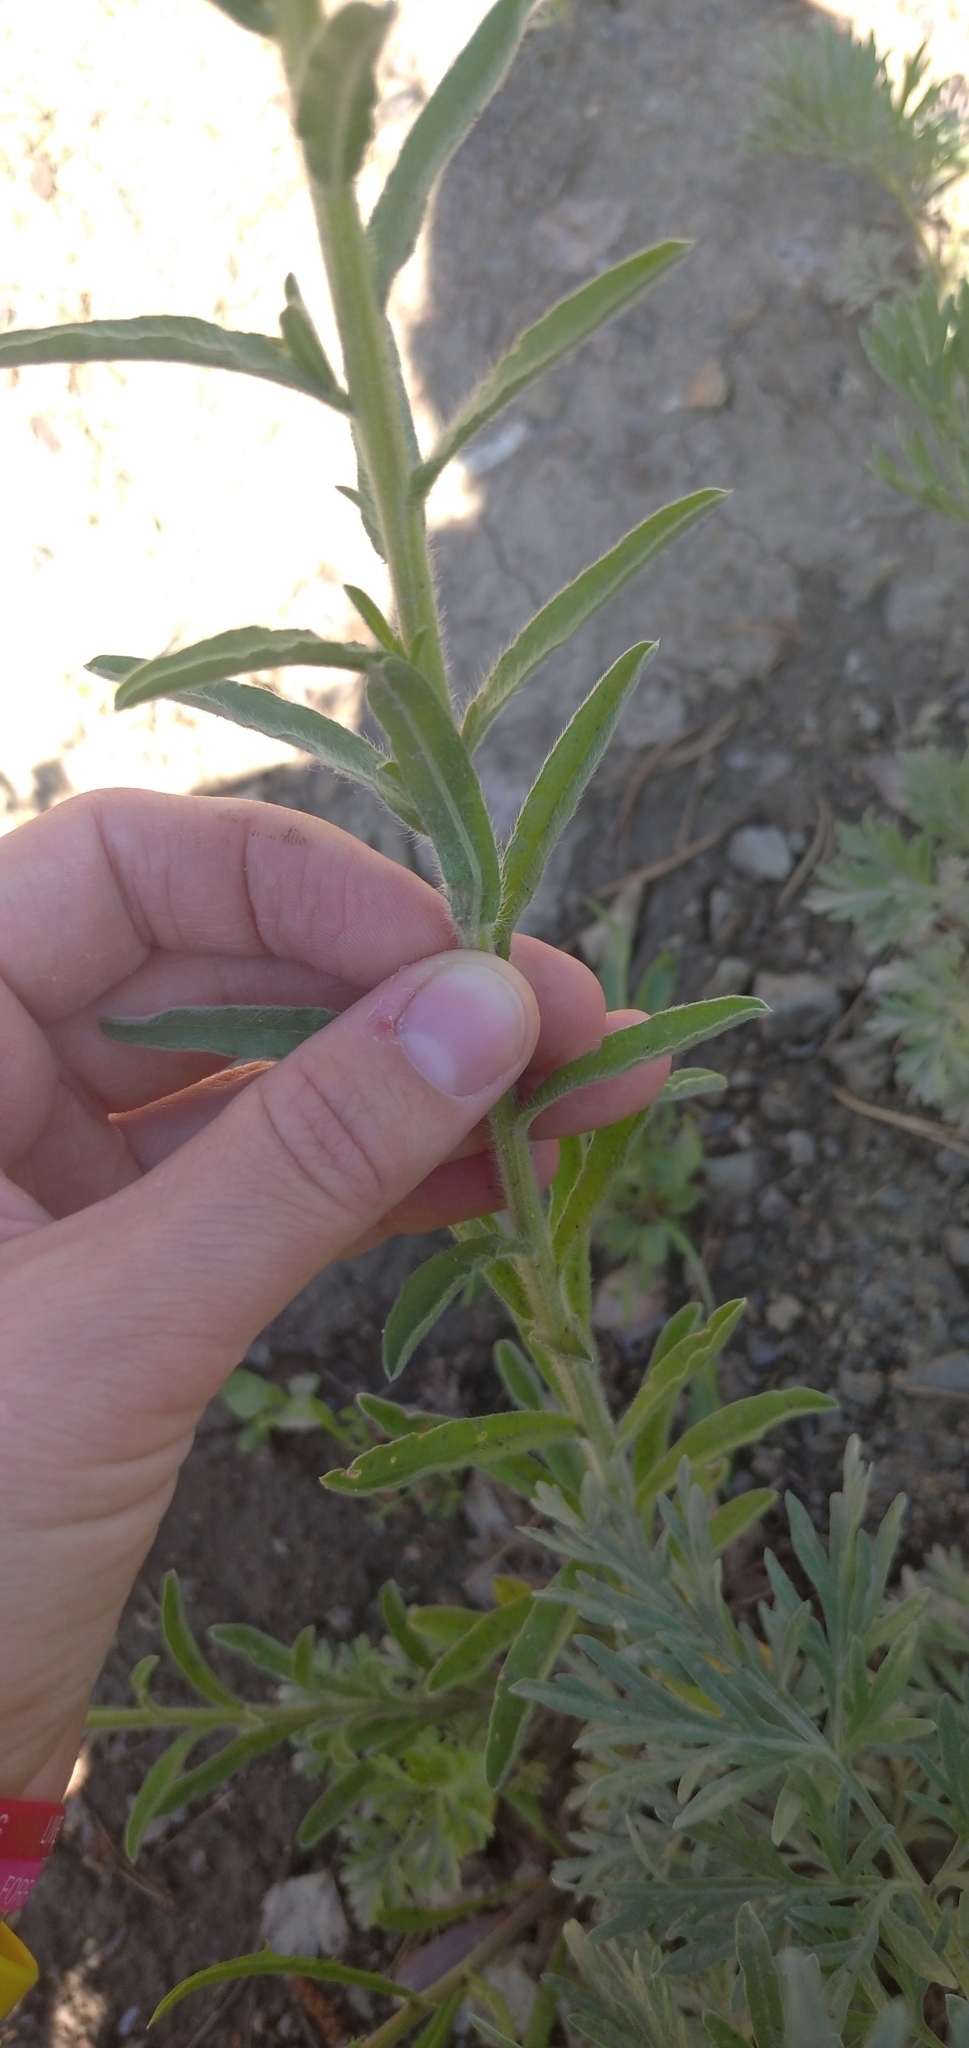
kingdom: Plantae
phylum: Tracheophyta
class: Magnoliopsida
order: Boraginales
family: Boraginaceae
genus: Lappula
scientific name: Lappula squarrosa
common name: European stickseed
